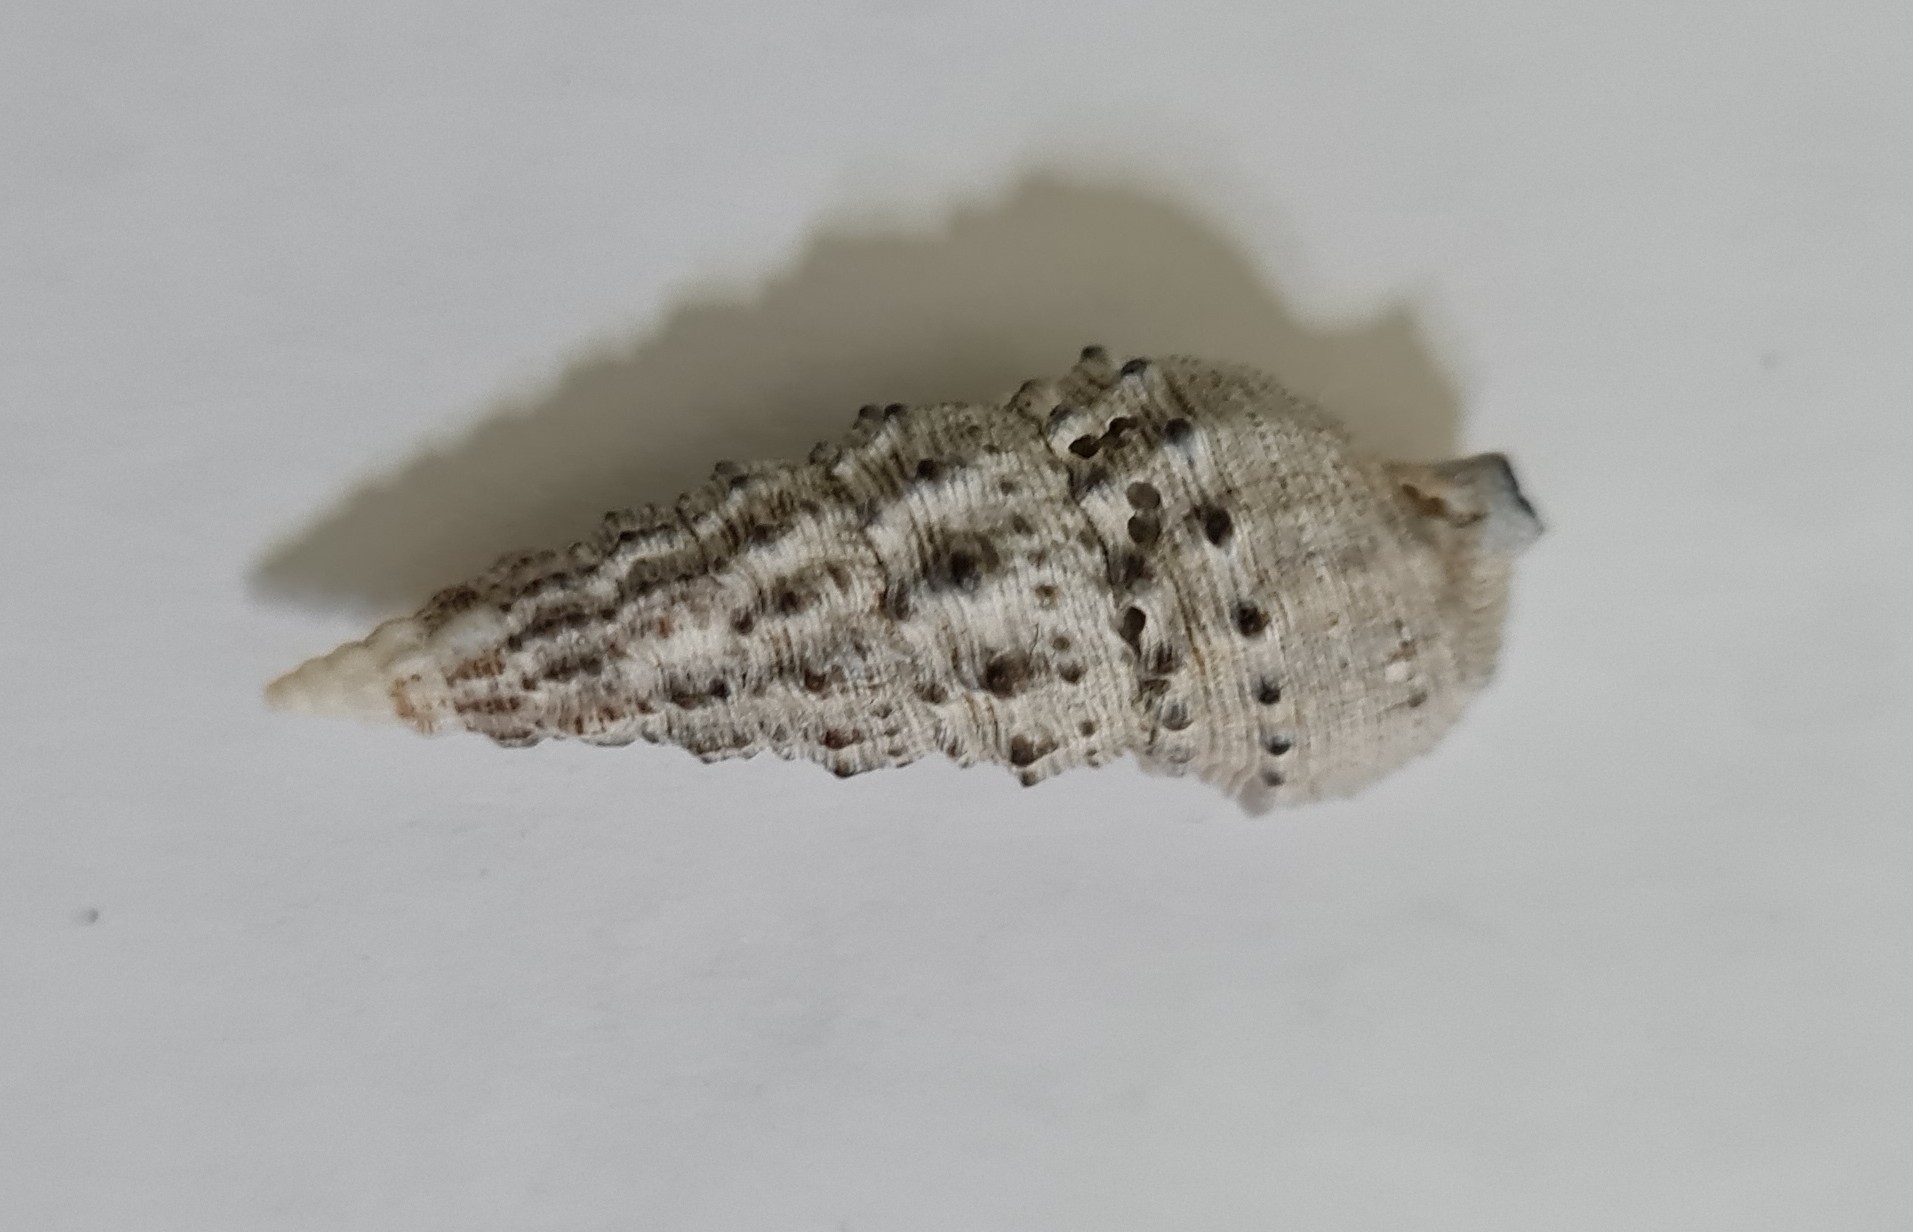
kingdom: Animalia
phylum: Mollusca
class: Gastropoda
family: Cerithiidae
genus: Cerithium
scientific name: Cerithium atratum
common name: Dark cerith
